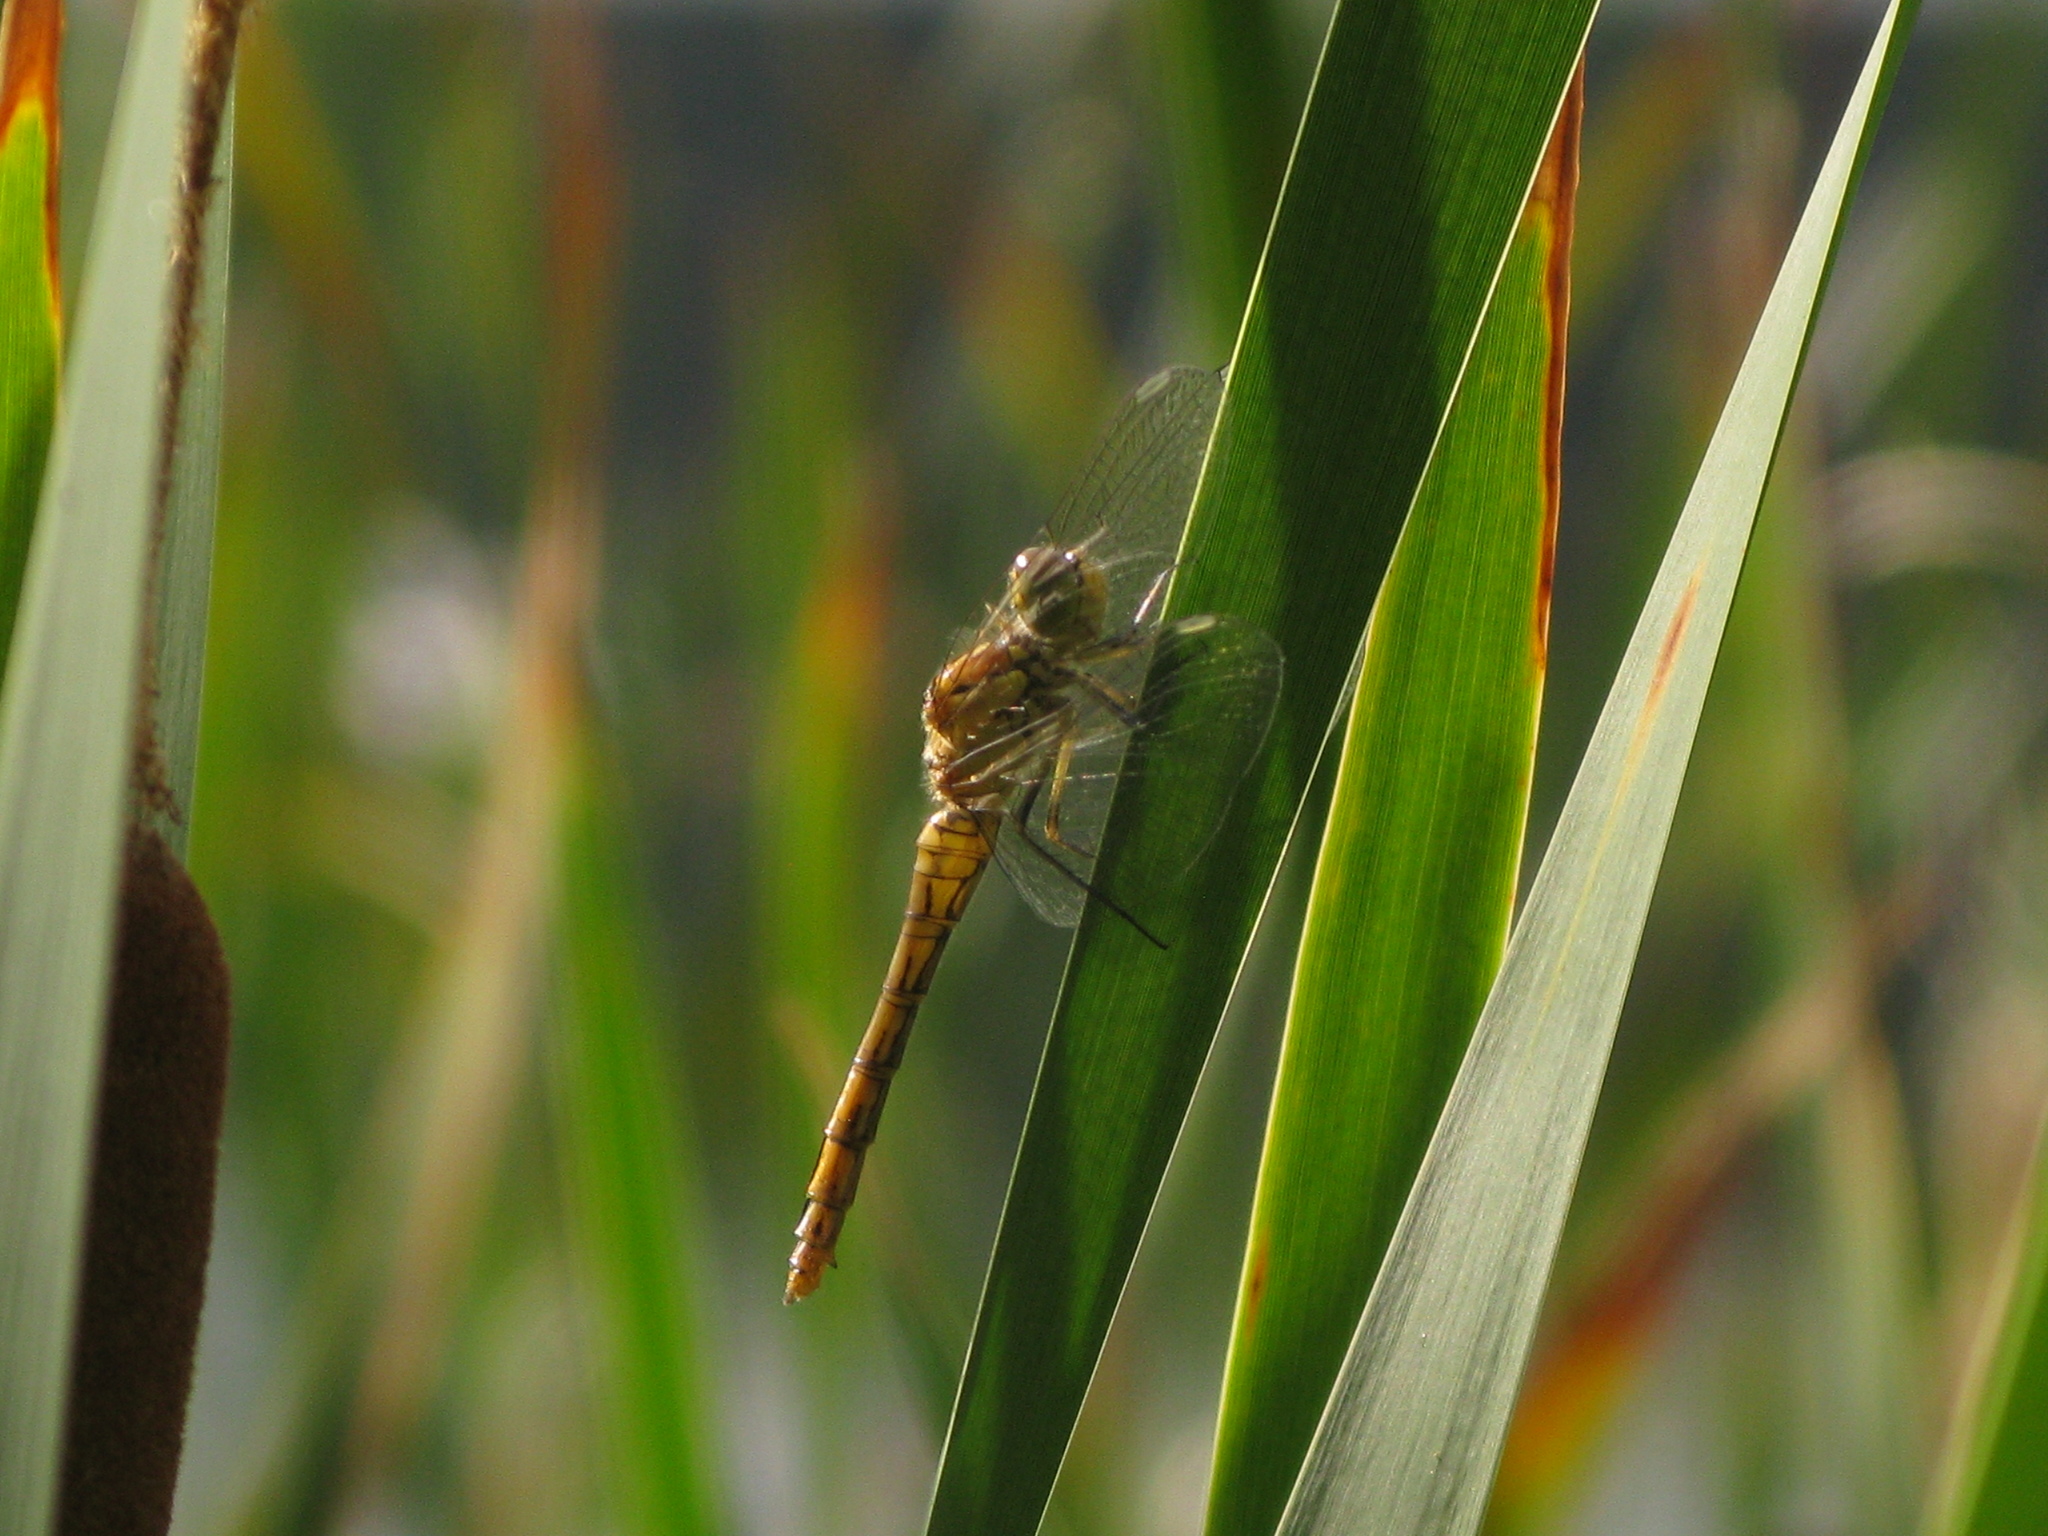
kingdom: Animalia
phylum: Arthropoda
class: Insecta
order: Odonata
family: Libellulidae
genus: Sympetrum
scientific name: Sympetrum vulgatum
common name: Vagrant darter
